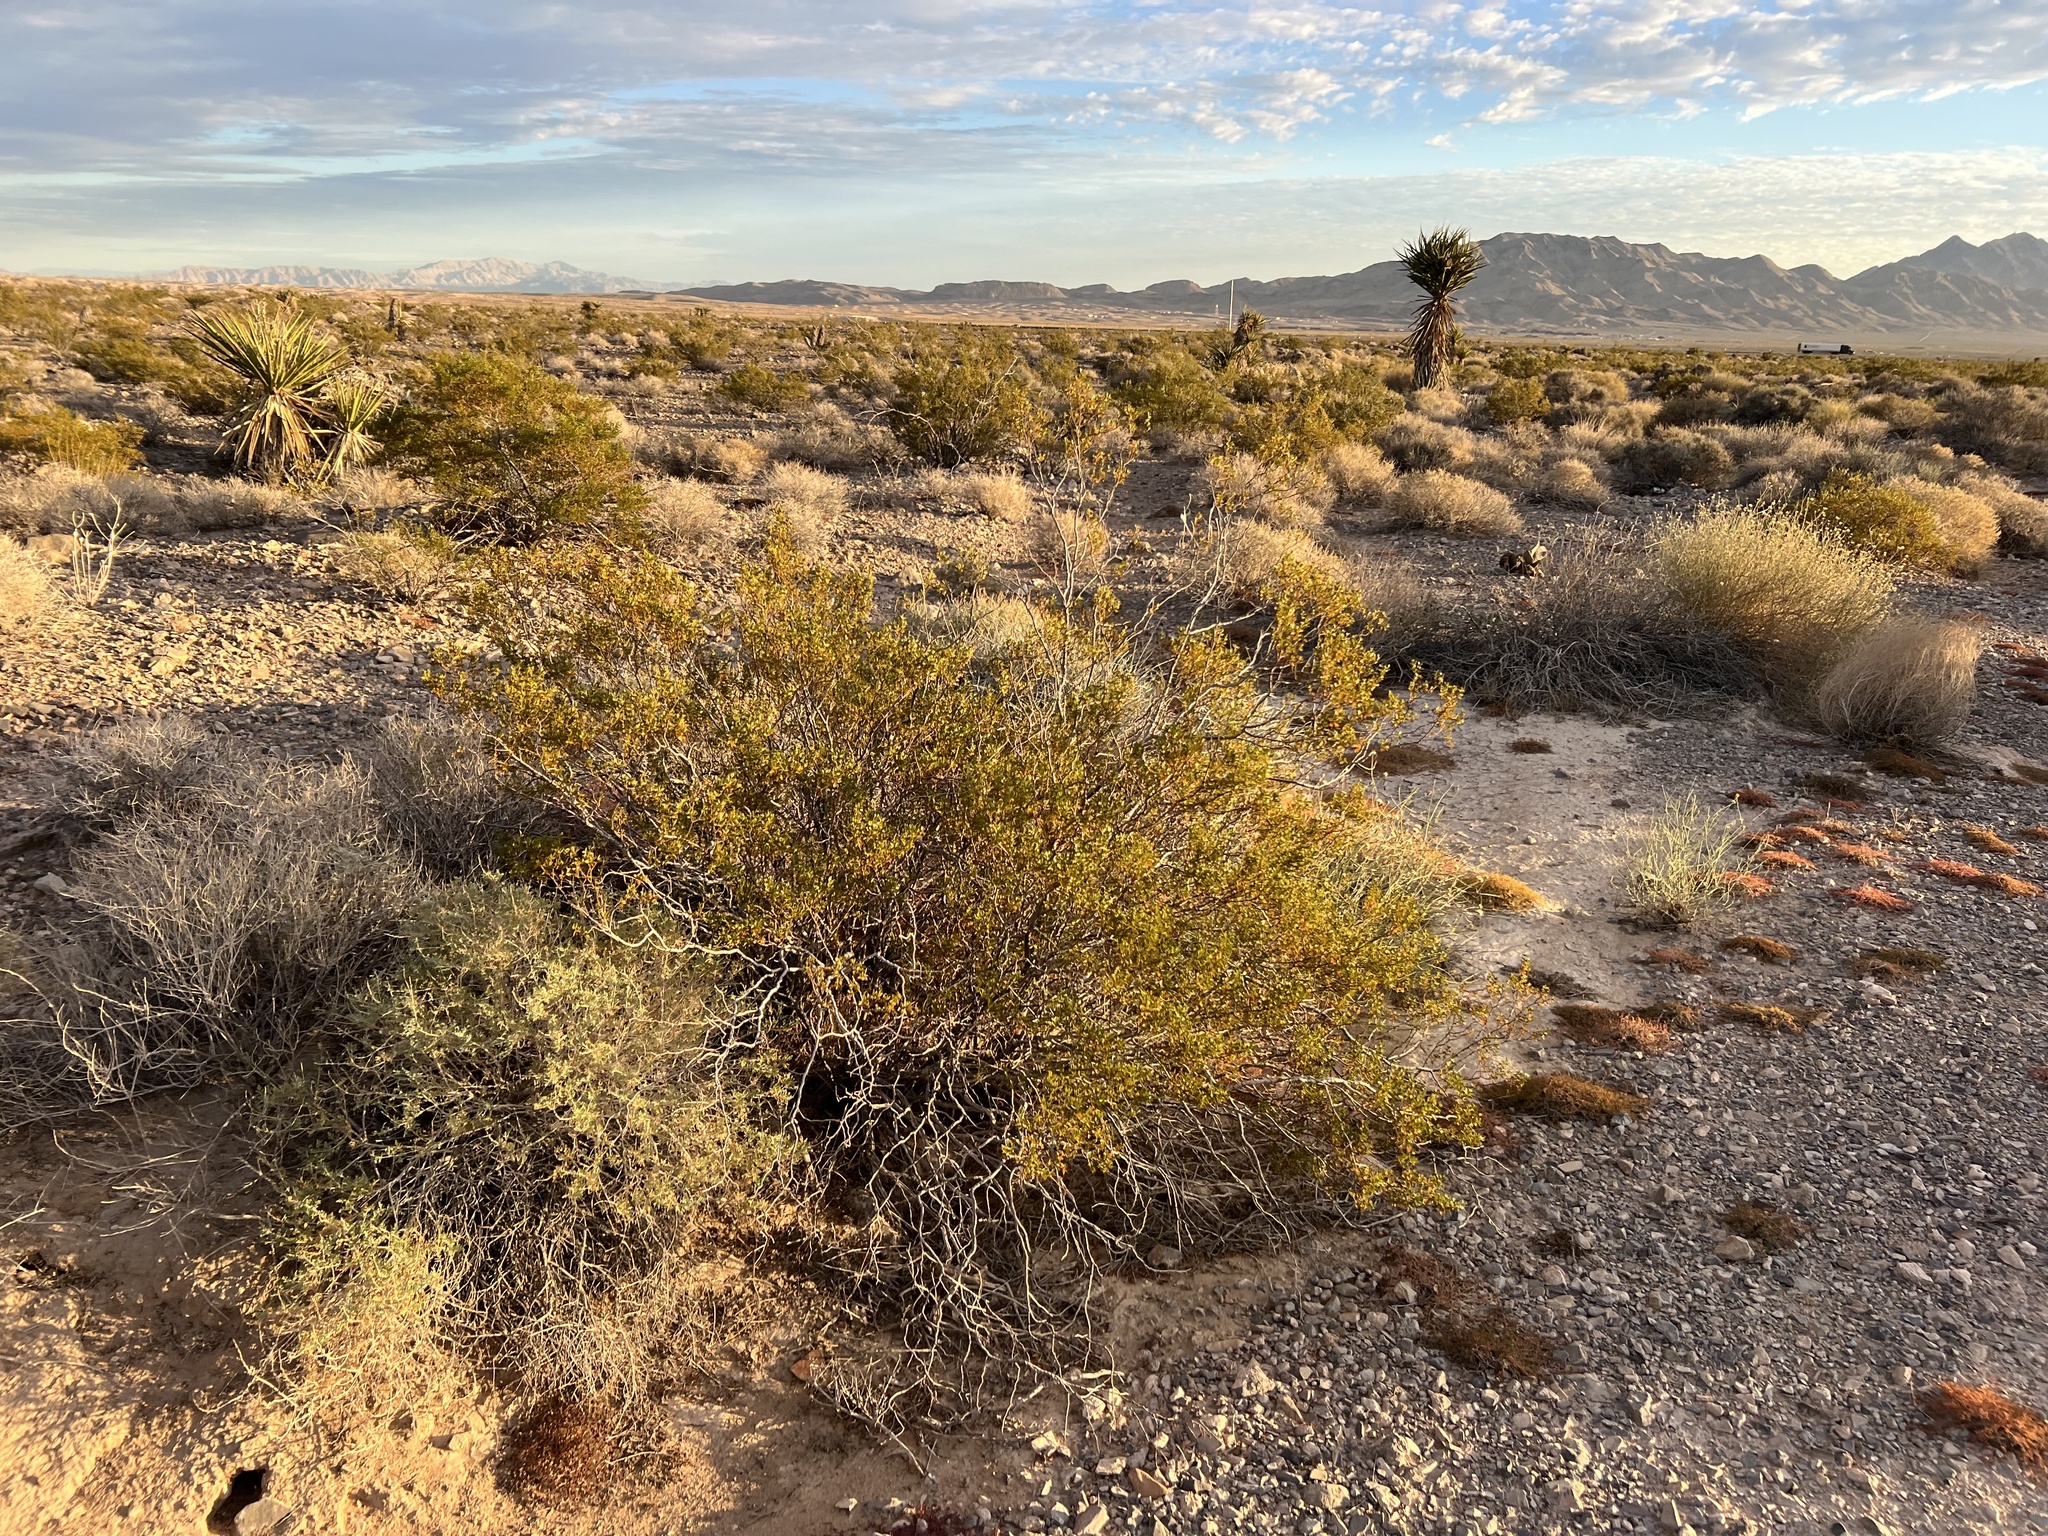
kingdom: Plantae
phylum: Tracheophyta
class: Magnoliopsida
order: Zygophyllales
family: Zygophyllaceae
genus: Larrea
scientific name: Larrea tridentata
